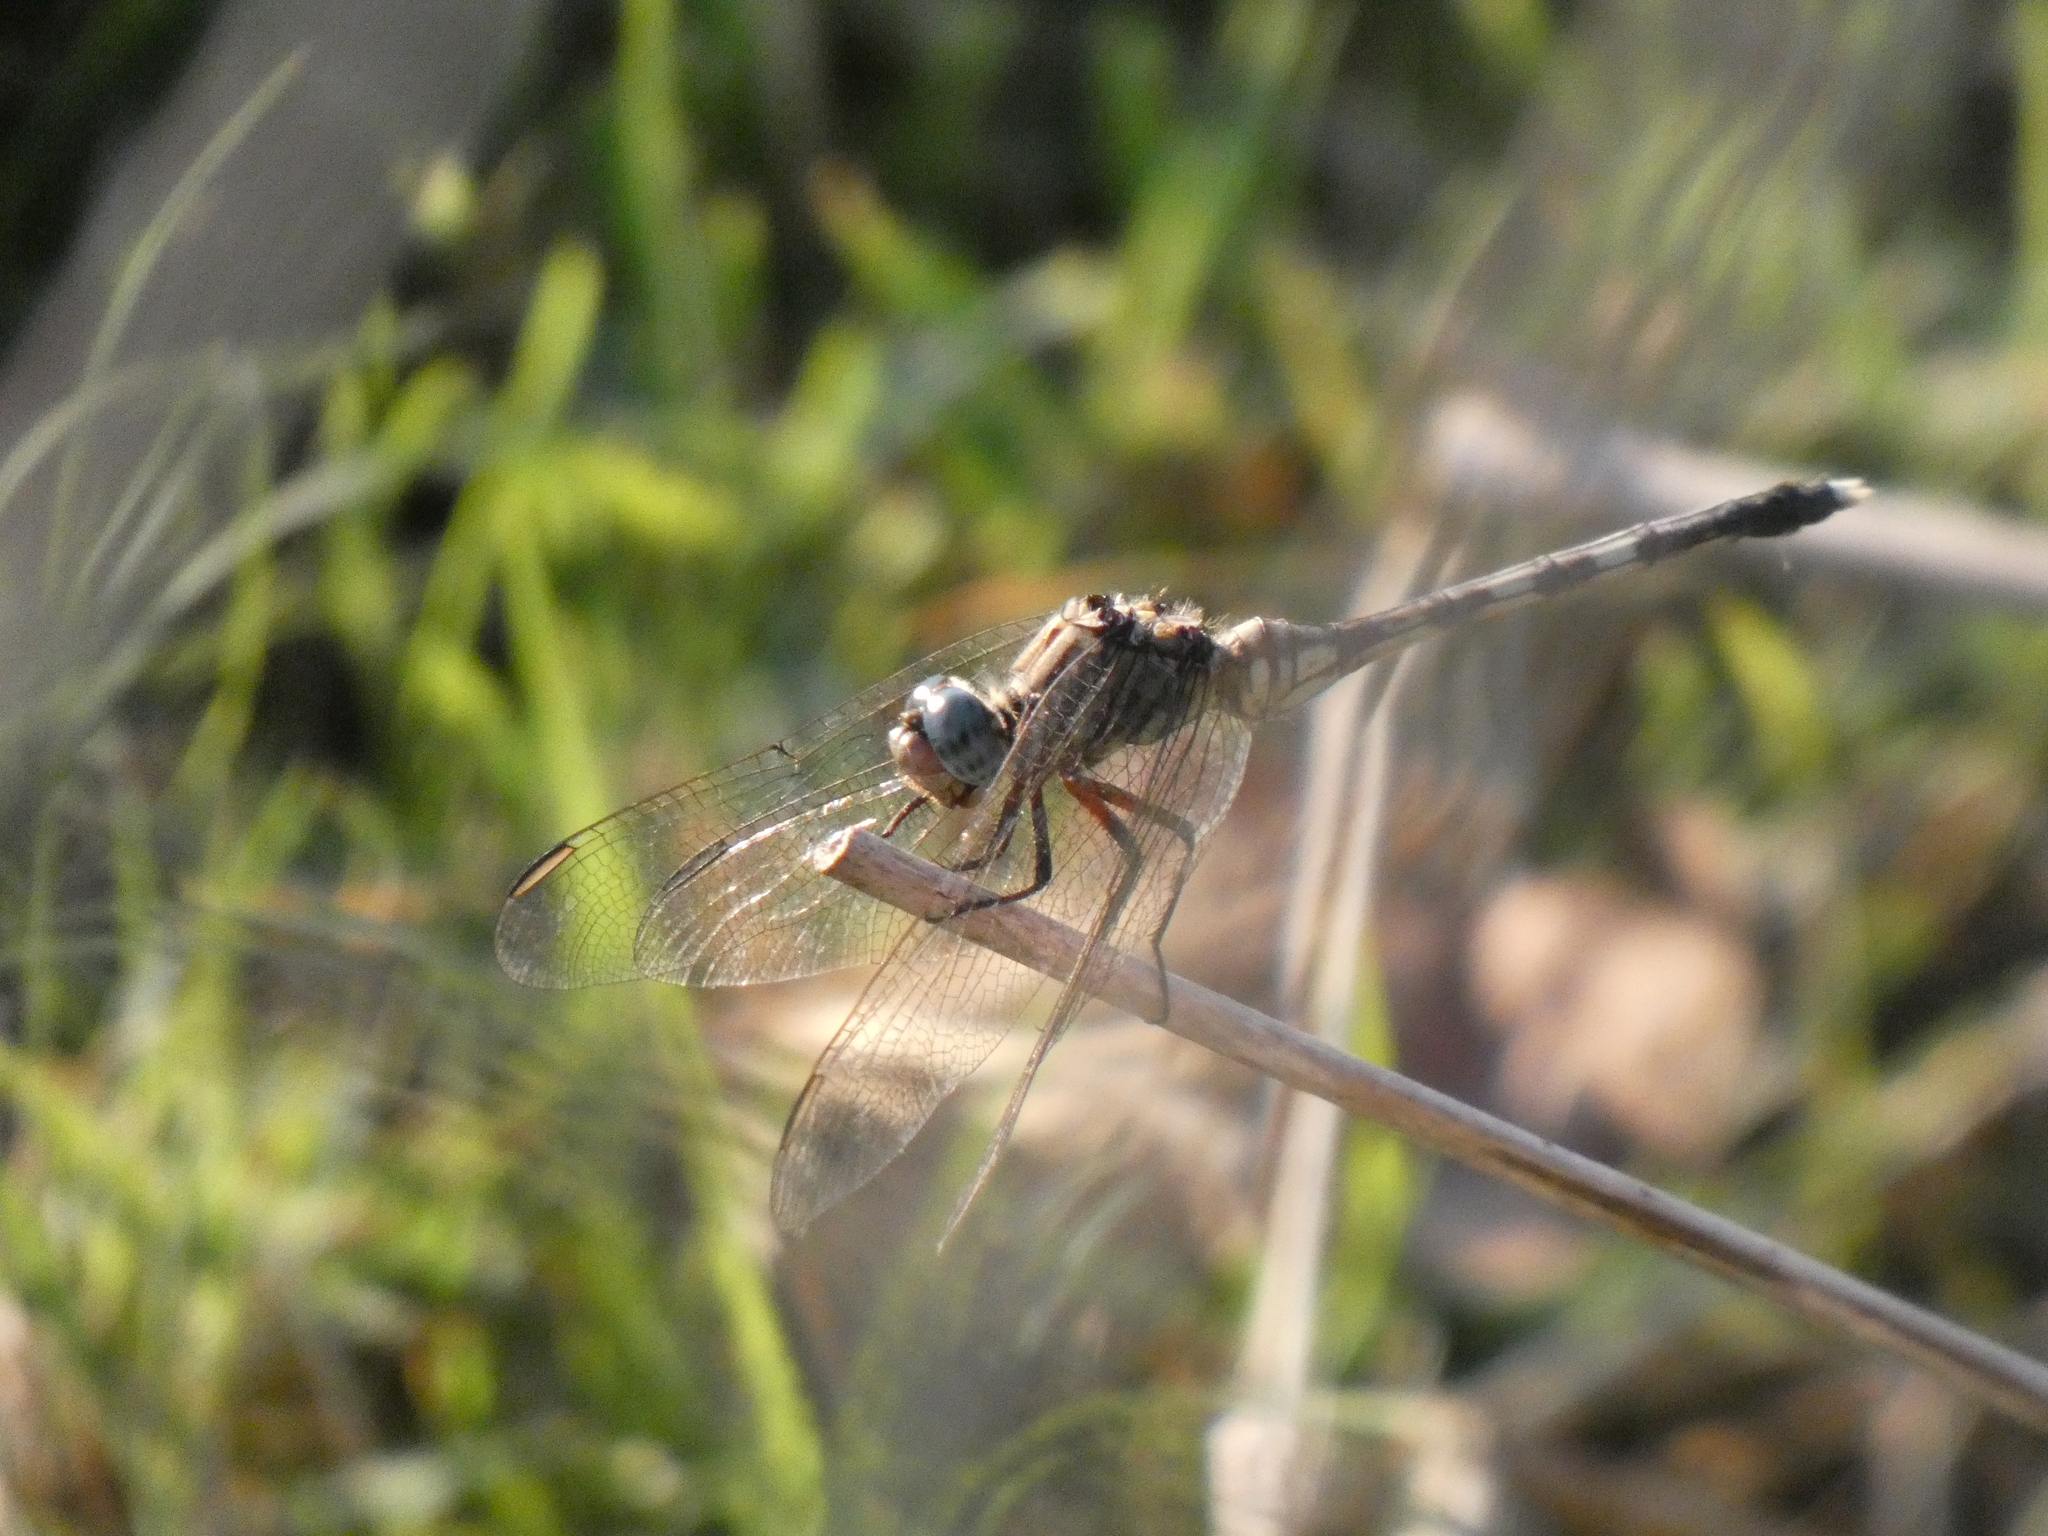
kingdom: Animalia
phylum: Arthropoda
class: Insecta
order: Odonata
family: Libellulidae
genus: Orthetrum
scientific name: Orthetrum julia
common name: Julia skimmer
